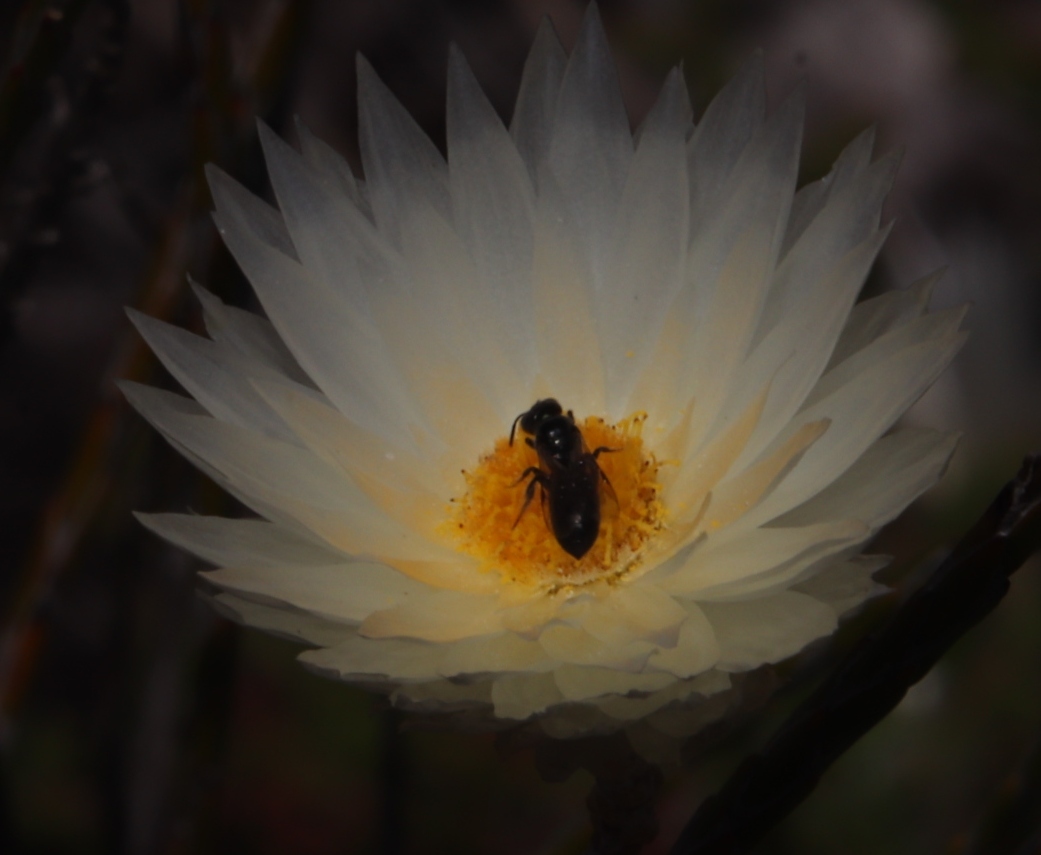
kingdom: Plantae
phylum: Tracheophyta
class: Magnoliopsida
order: Asterales
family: Asteraceae
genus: Edmondia
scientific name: Edmondia sesamoides
